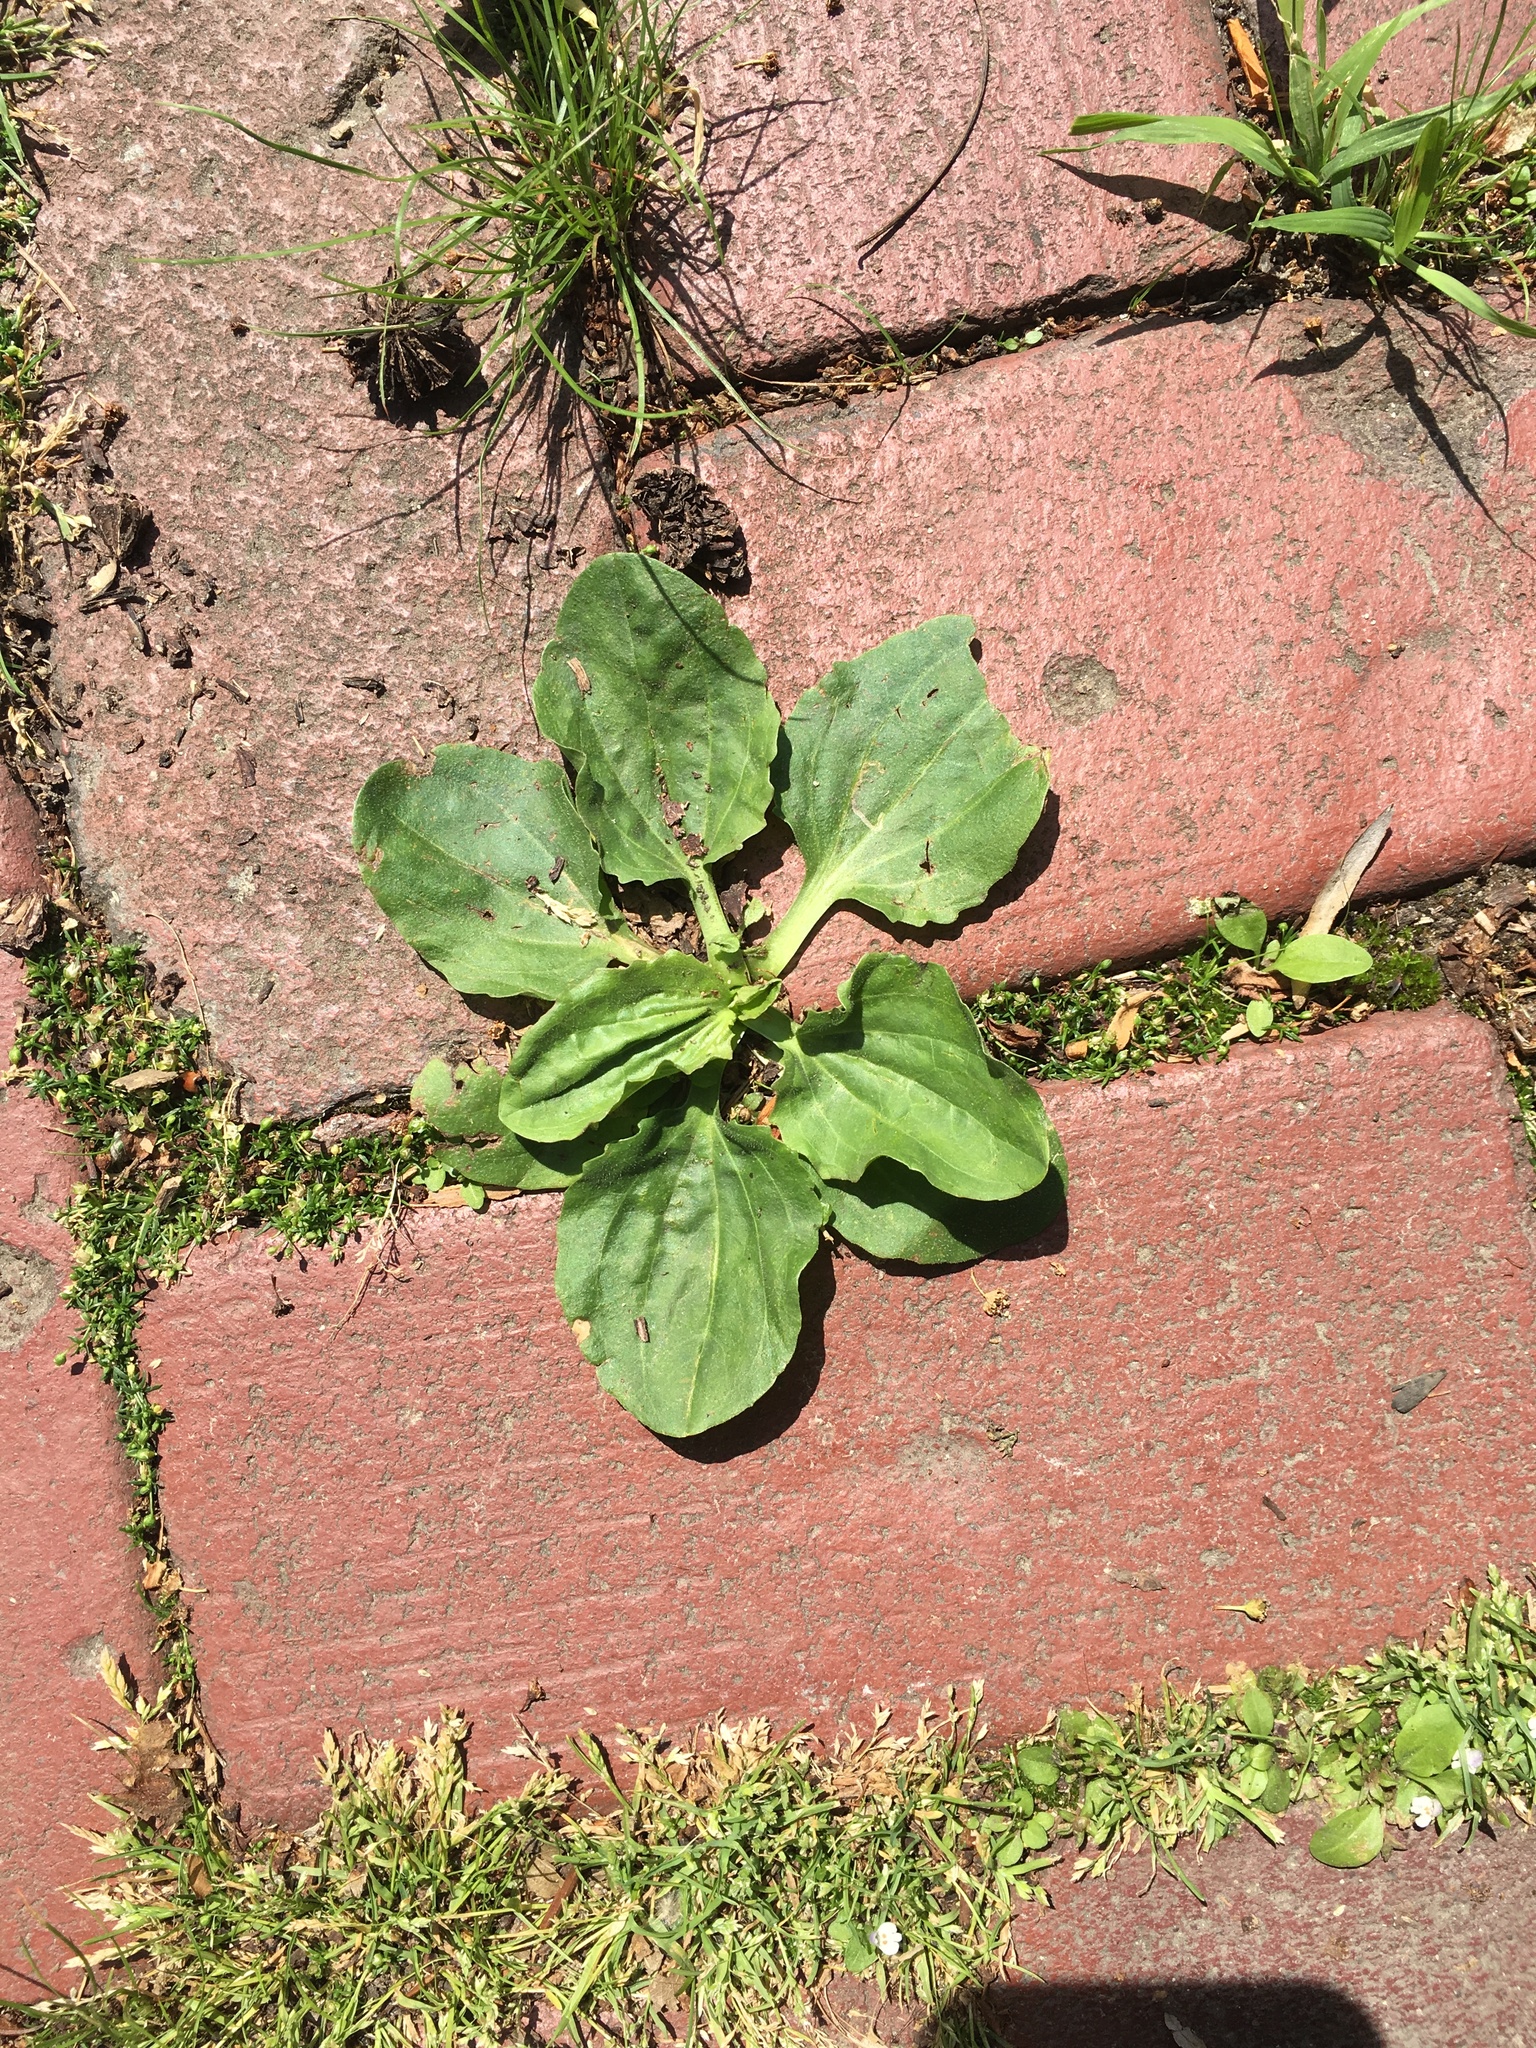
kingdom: Plantae
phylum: Tracheophyta
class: Magnoliopsida
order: Lamiales
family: Plantaginaceae
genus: Plantago
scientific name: Plantago major
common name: Common plantain
